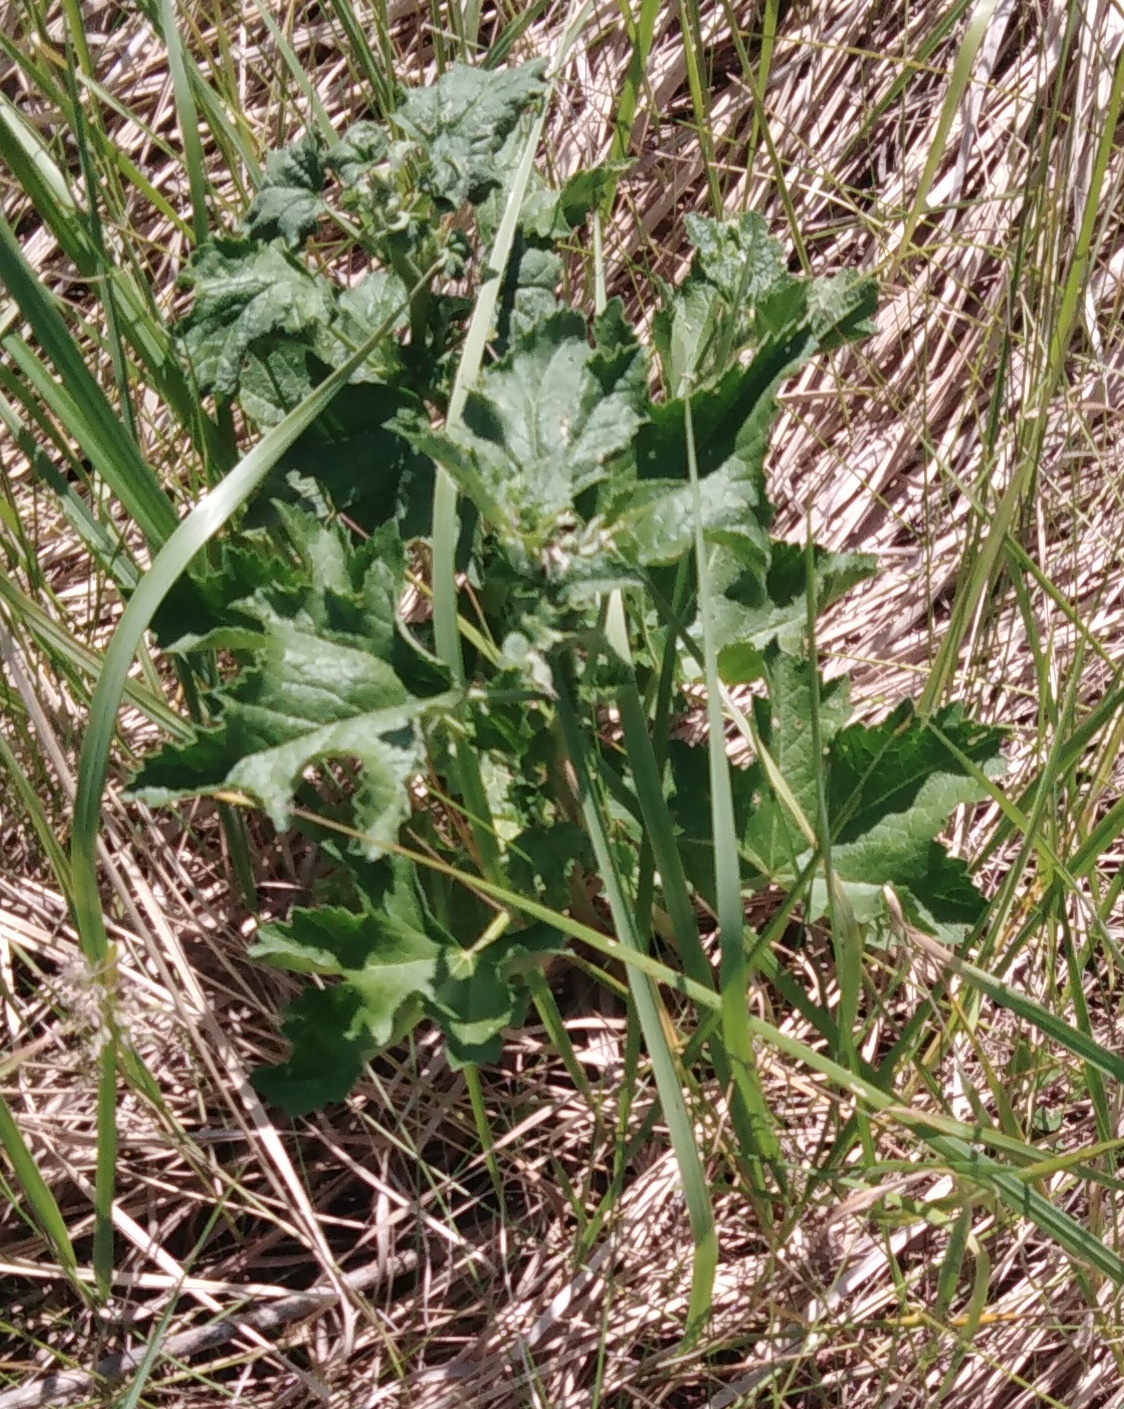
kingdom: Plantae
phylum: Tracheophyta
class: Magnoliopsida
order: Malvales
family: Malvaceae
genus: Malva
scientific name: Malva thuringiaca
